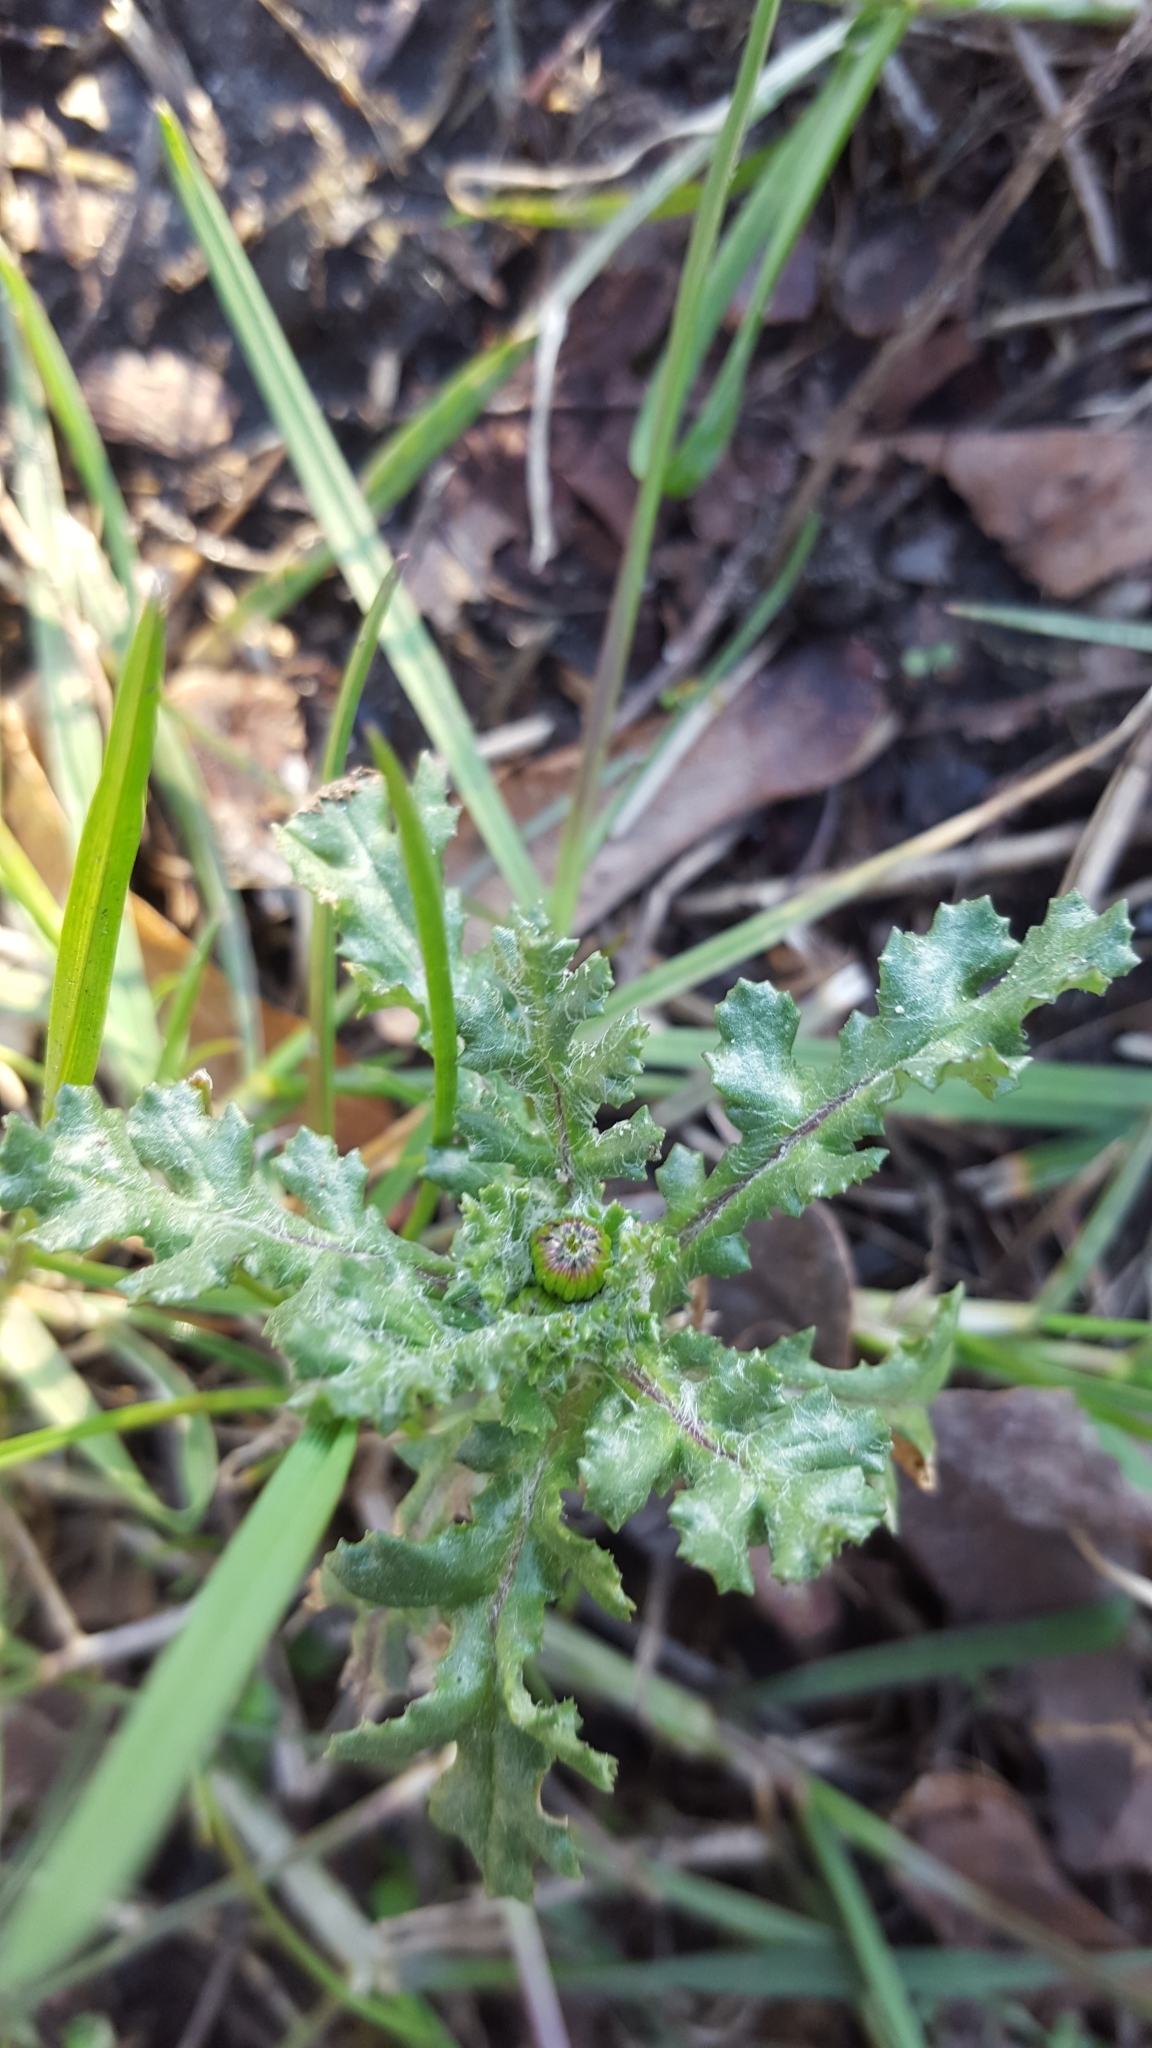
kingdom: Plantae
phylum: Tracheophyta
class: Magnoliopsida
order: Asterales
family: Asteraceae
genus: Senecio
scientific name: Senecio vulgaris
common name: Old-man-in-the-spring
